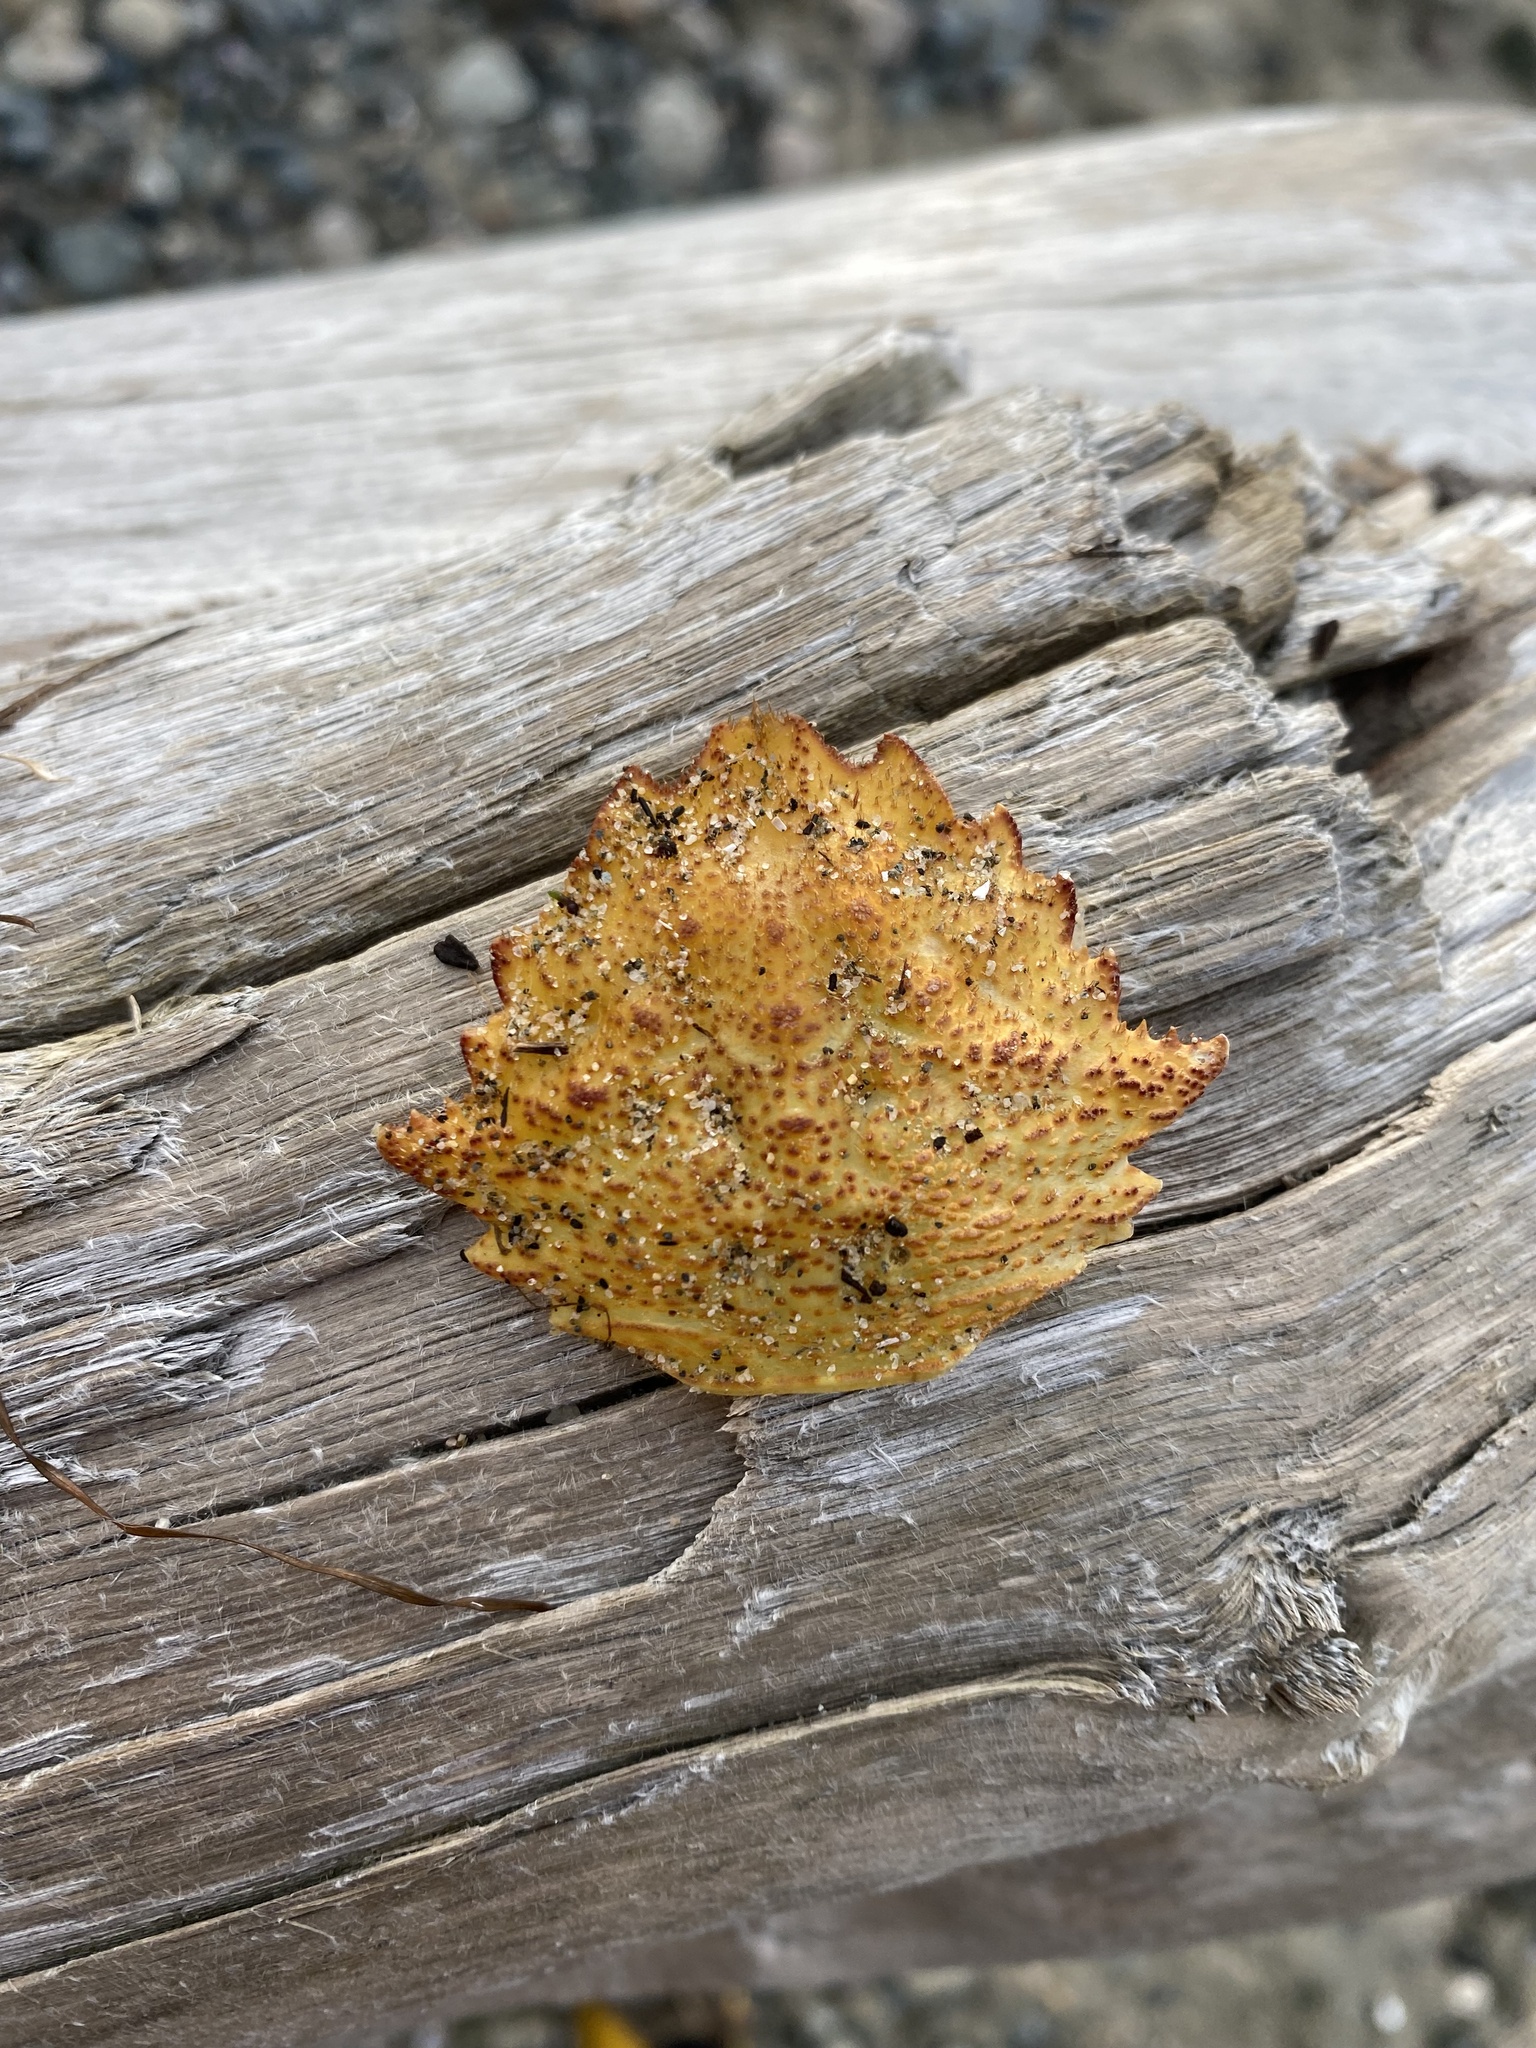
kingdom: Animalia
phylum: Arthropoda
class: Malacostraca
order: Decapoda
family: Cheiragonidae
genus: Telmessus
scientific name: Telmessus cheiragonus
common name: Helmet crab
